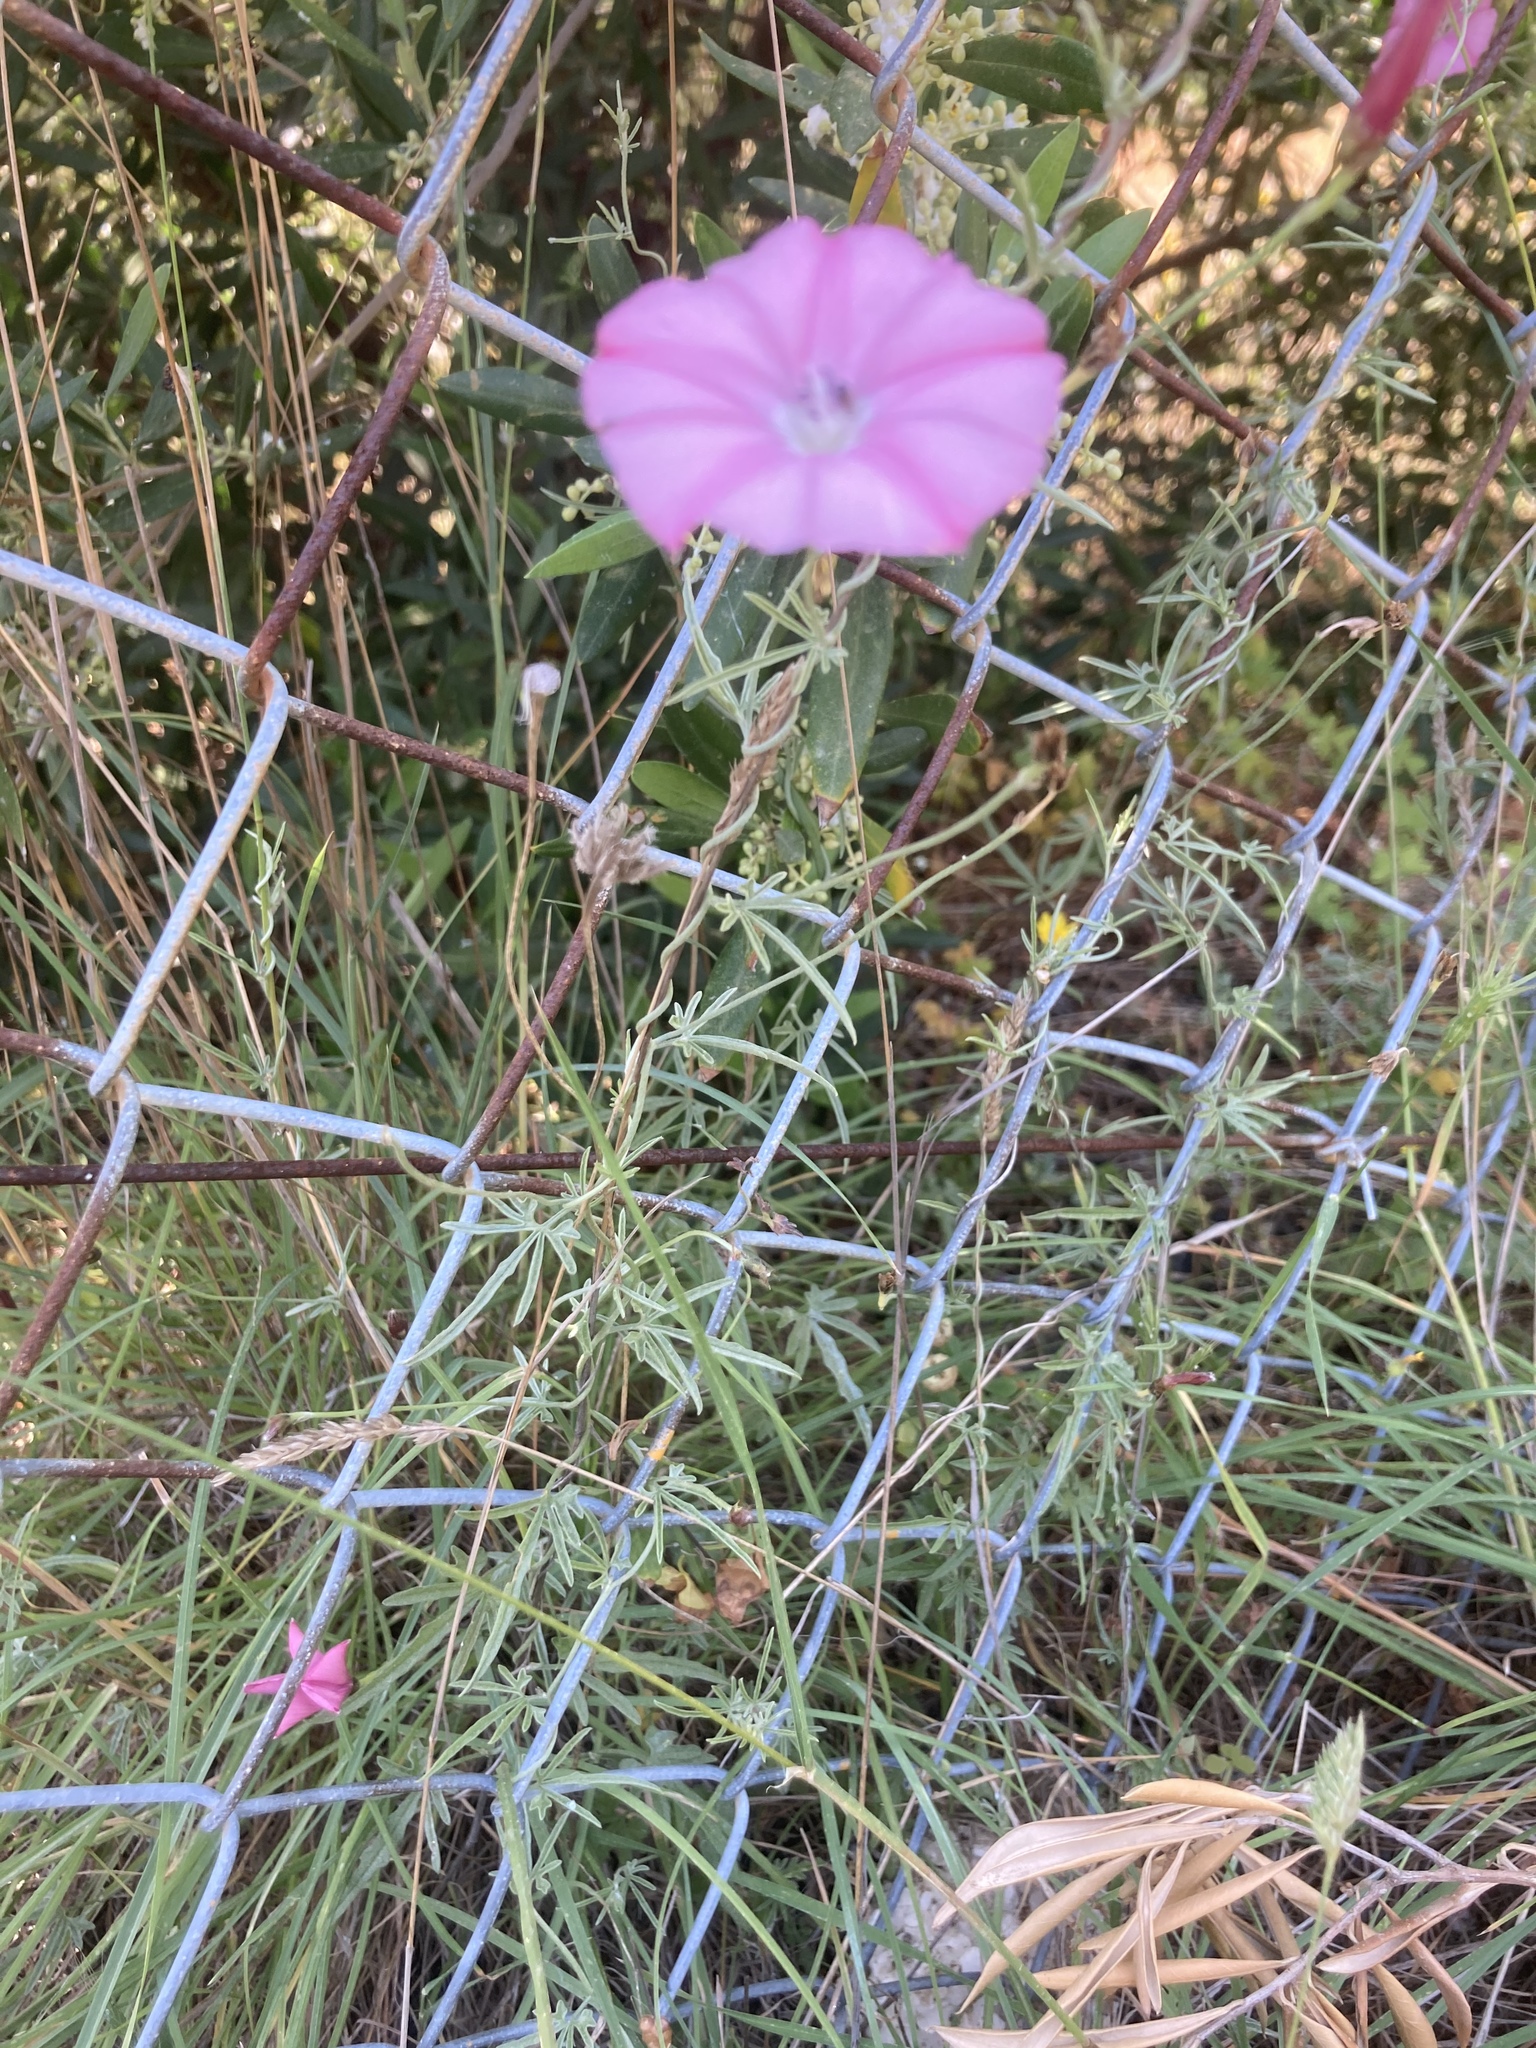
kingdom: Plantae
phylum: Tracheophyta
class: Magnoliopsida
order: Solanales
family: Convolvulaceae
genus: Convolvulus
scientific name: Convolvulus elegantissimus
